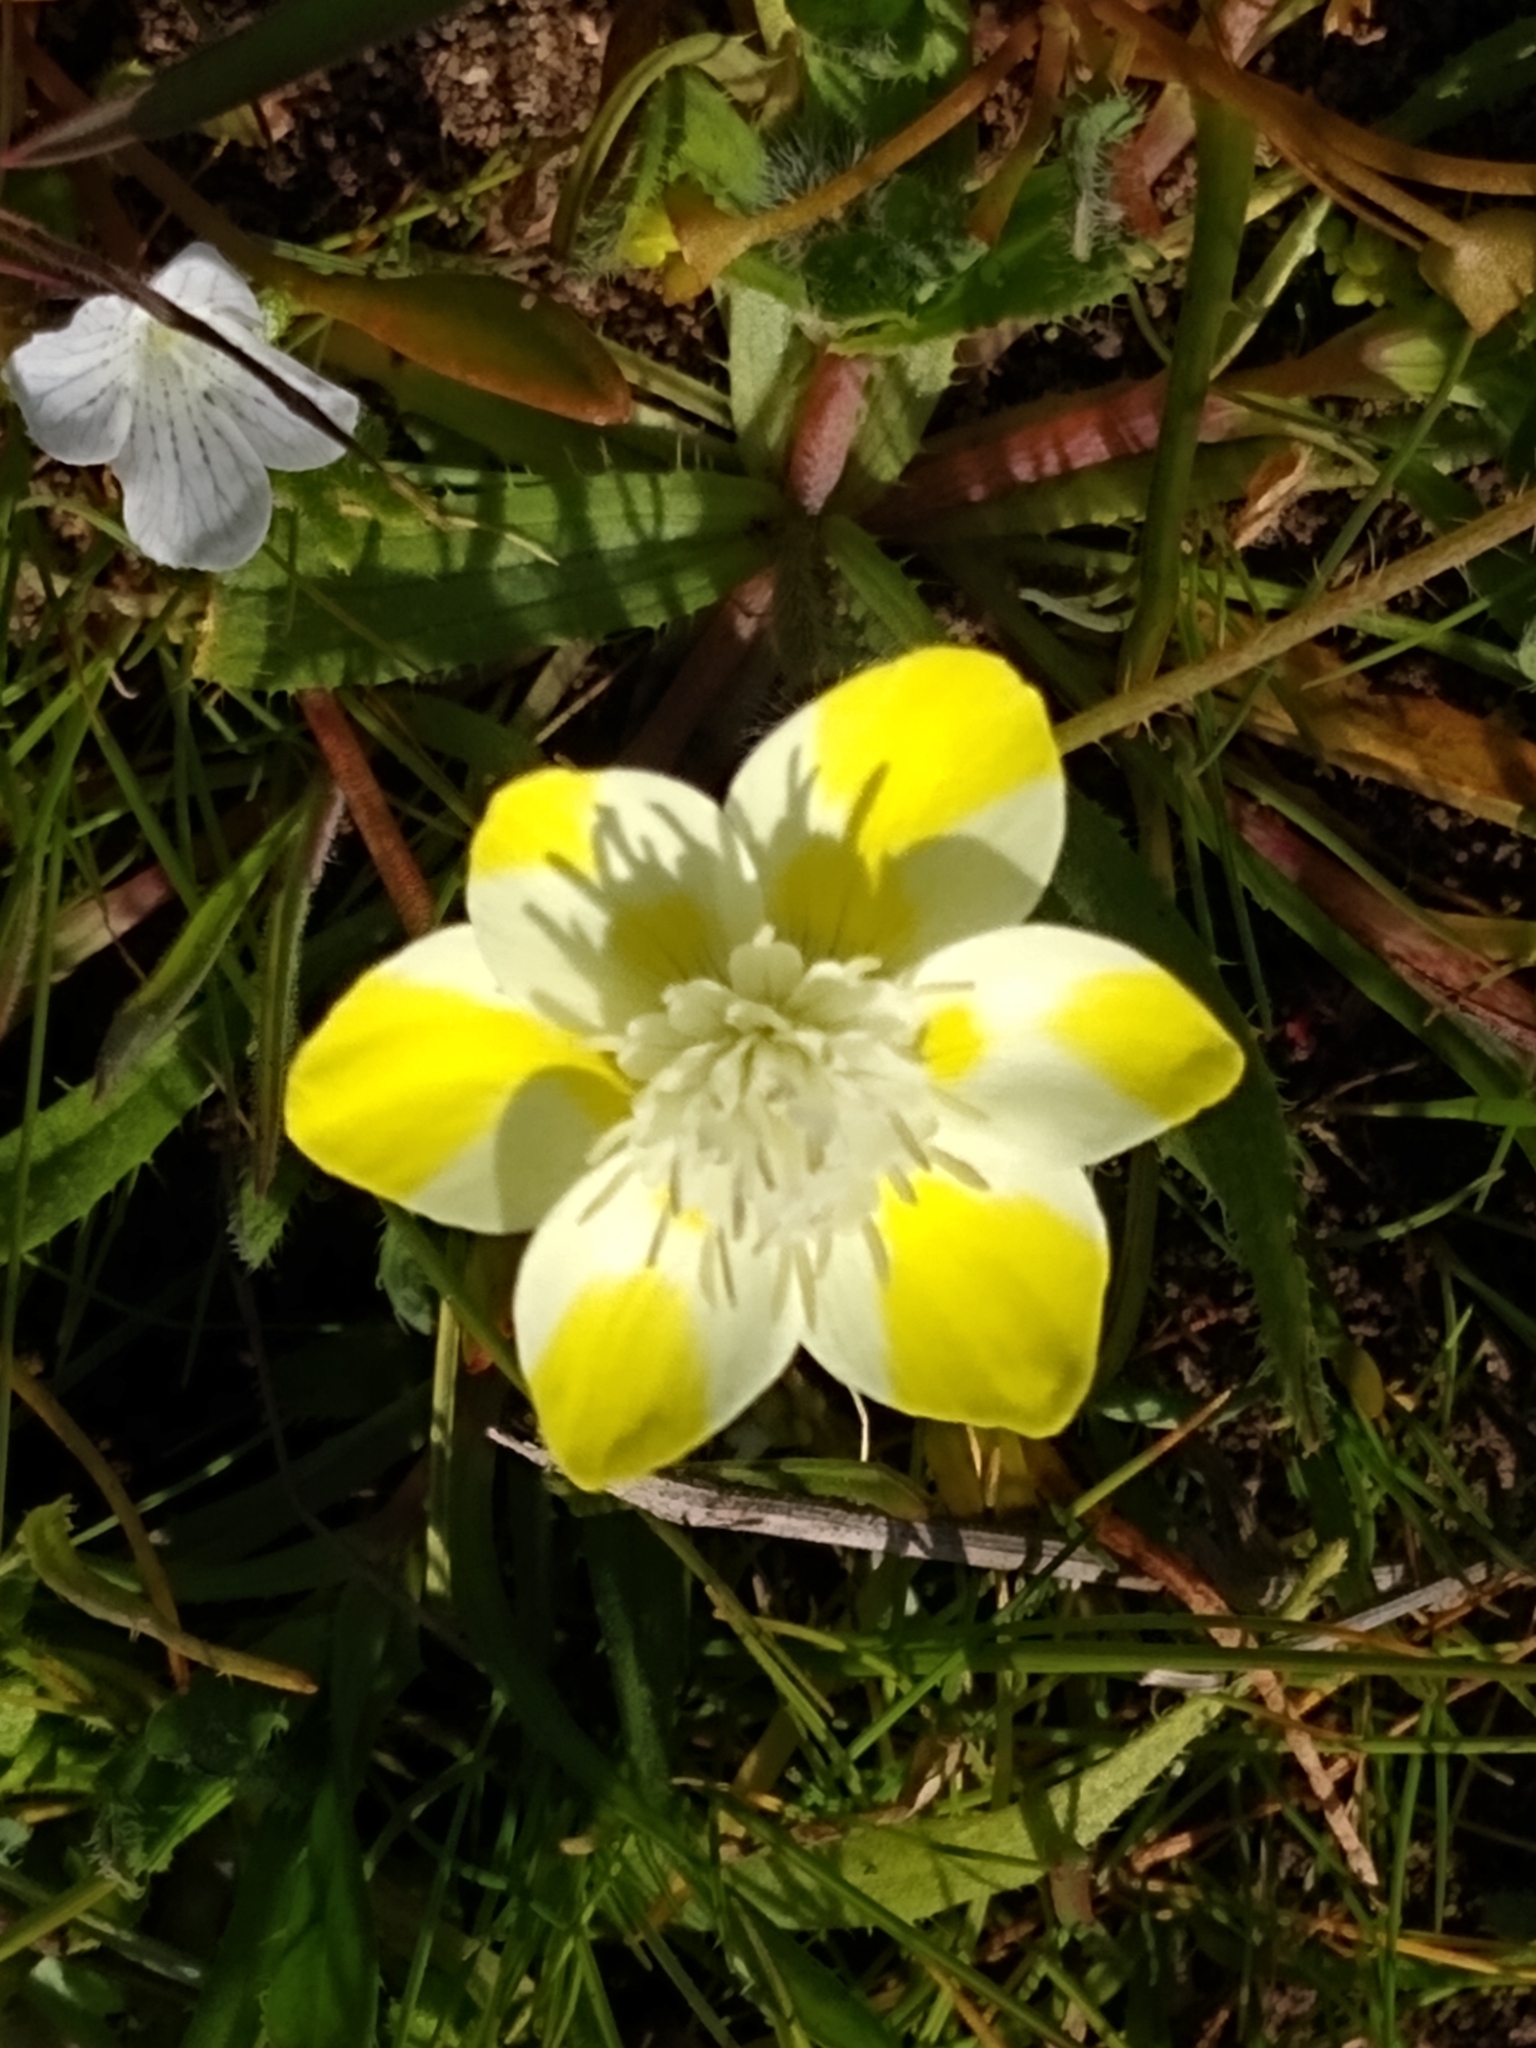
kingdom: Plantae
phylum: Tracheophyta
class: Magnoliopsida
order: Ranunculales
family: Papaveraceae
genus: Platystemon
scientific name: Platystemon californicus
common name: Cream-cups
